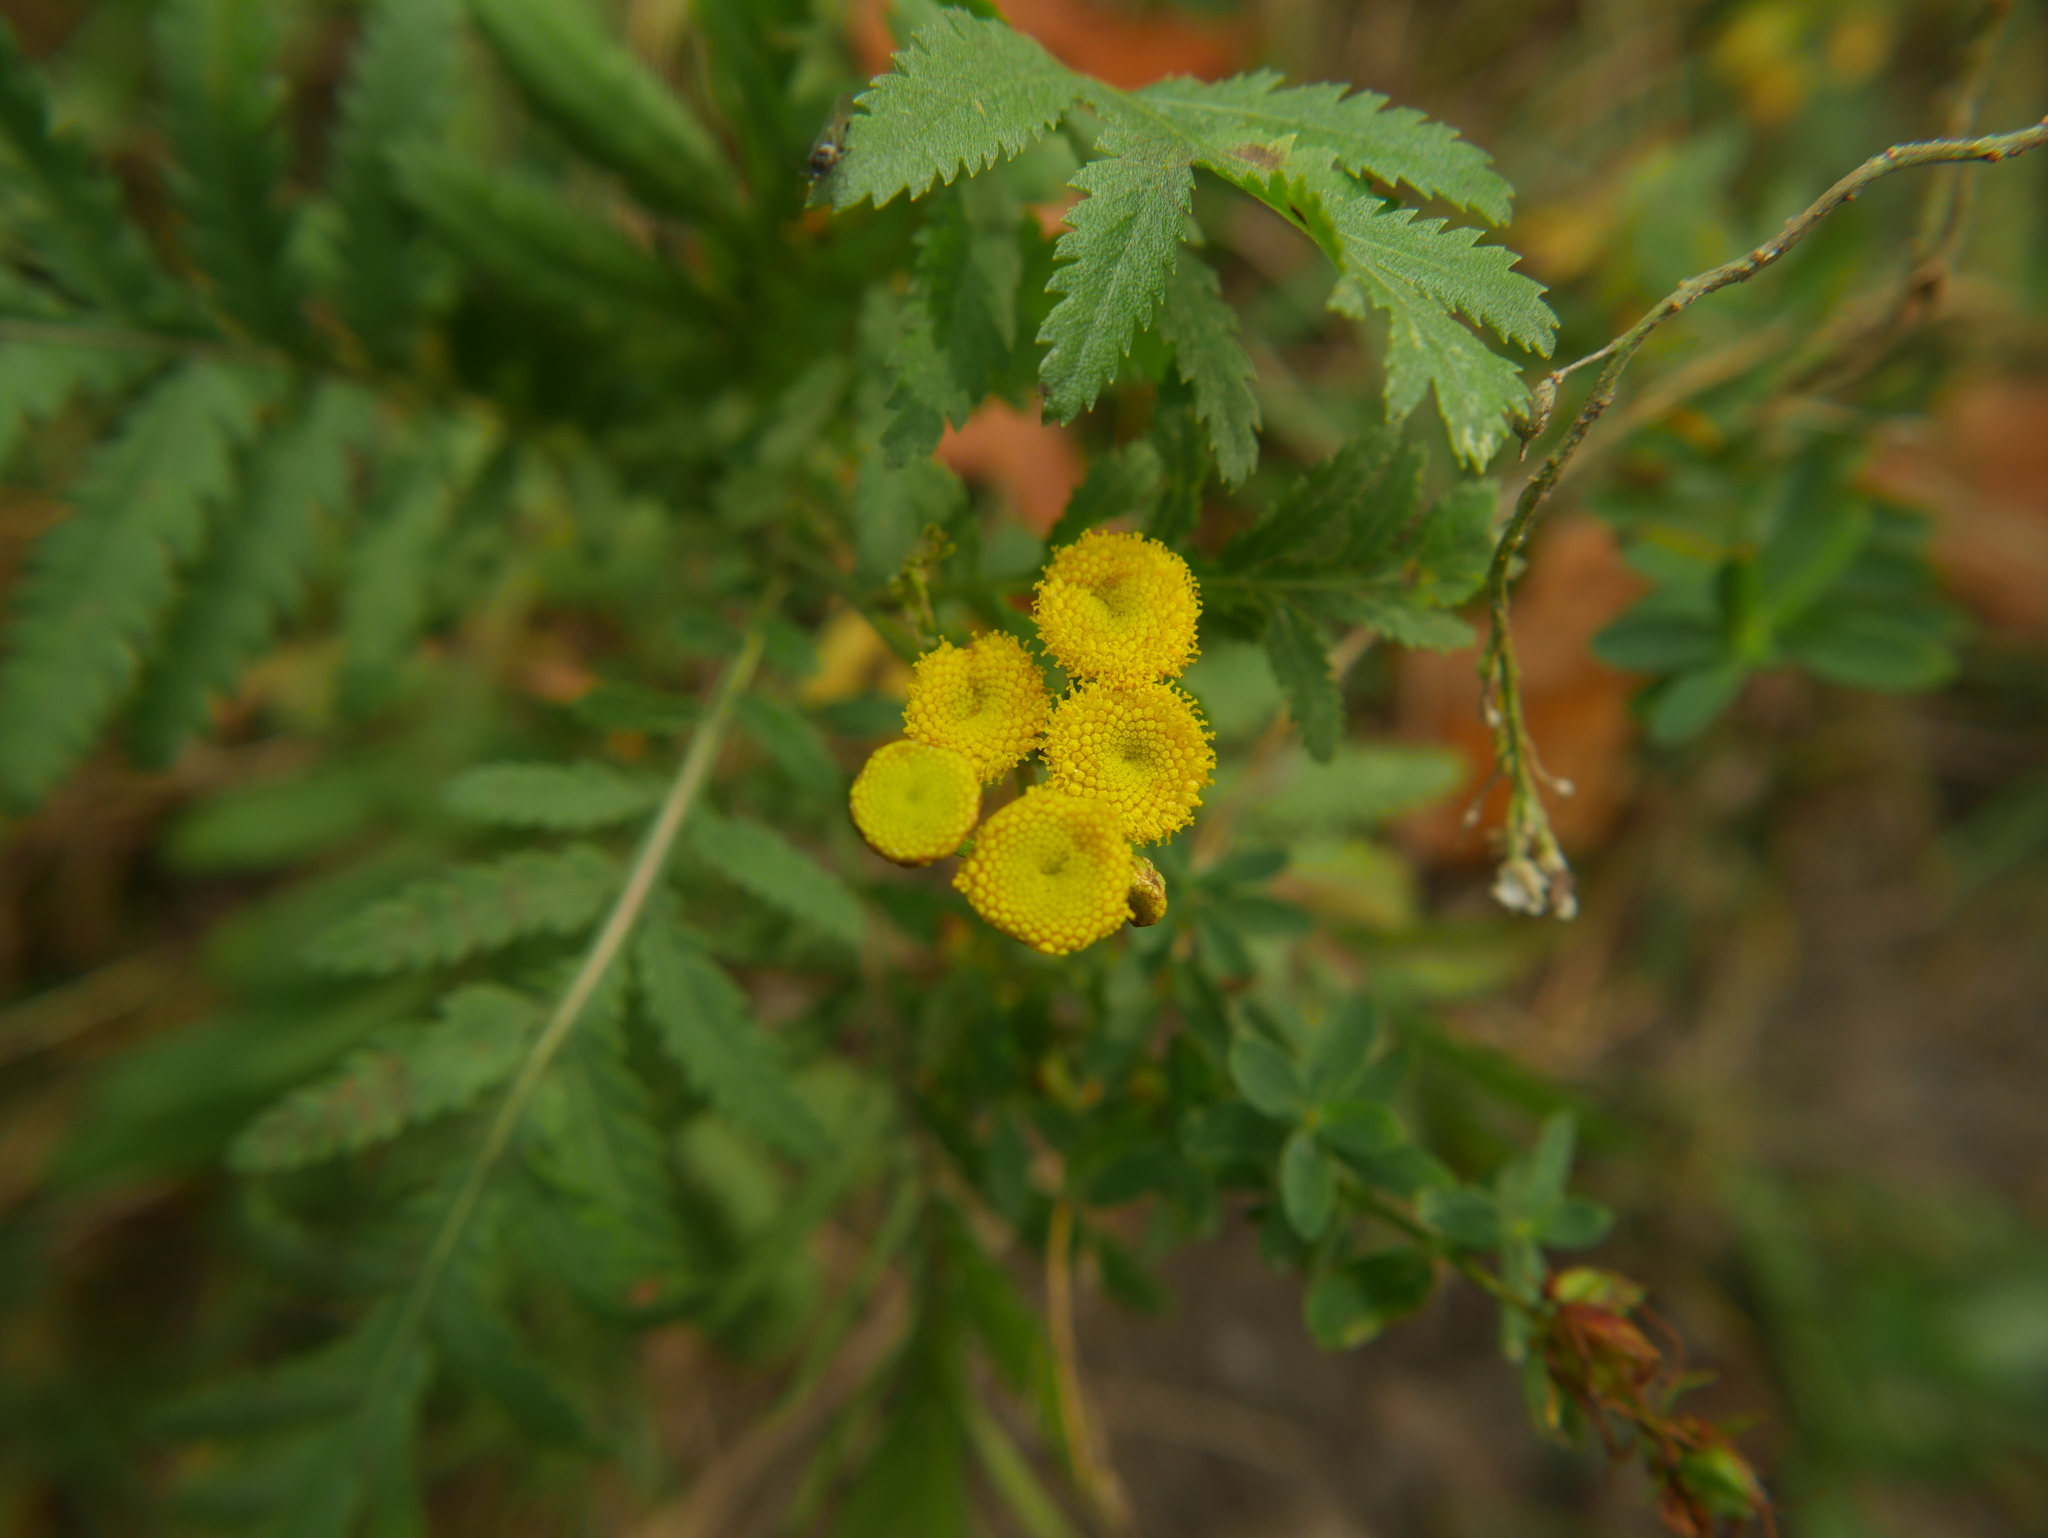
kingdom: Plantae
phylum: Tracheophyta
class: Magnoliopsida
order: Asterales
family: Asteraceae
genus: Tanacetum
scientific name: Tanacetum vulgare
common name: Common tansy
